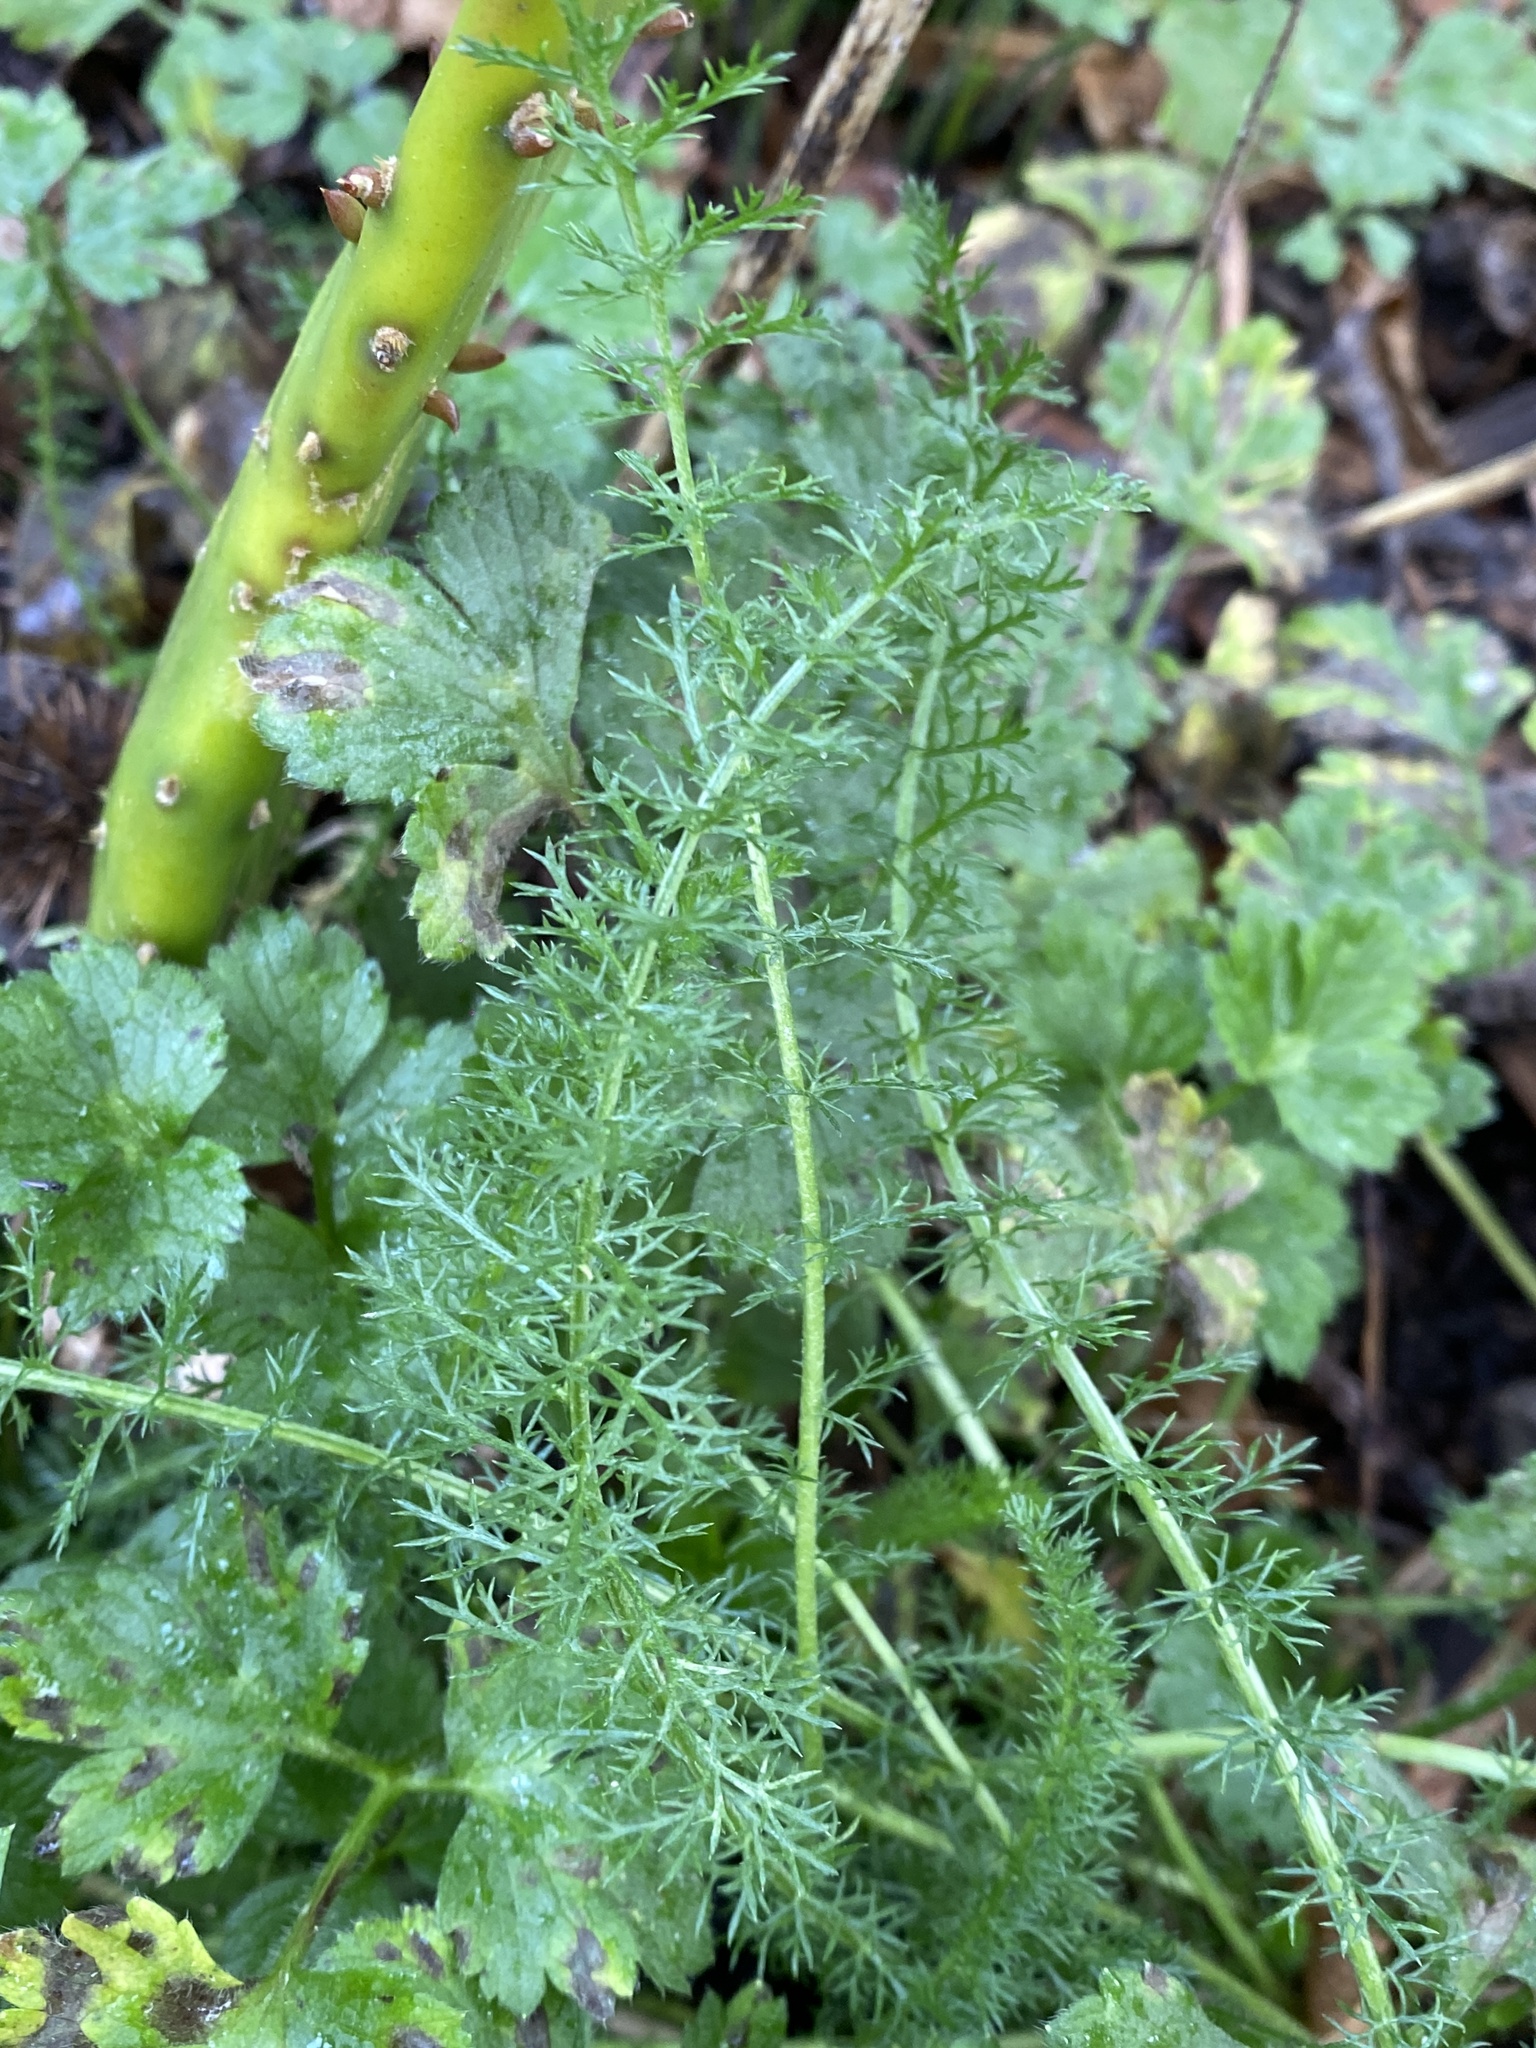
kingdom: Plantae
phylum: Tracheophyta
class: Magnoliopsida
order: Asterales
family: Asteraceae
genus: Achillea
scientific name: Achillea millefolium
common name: Yarrow
